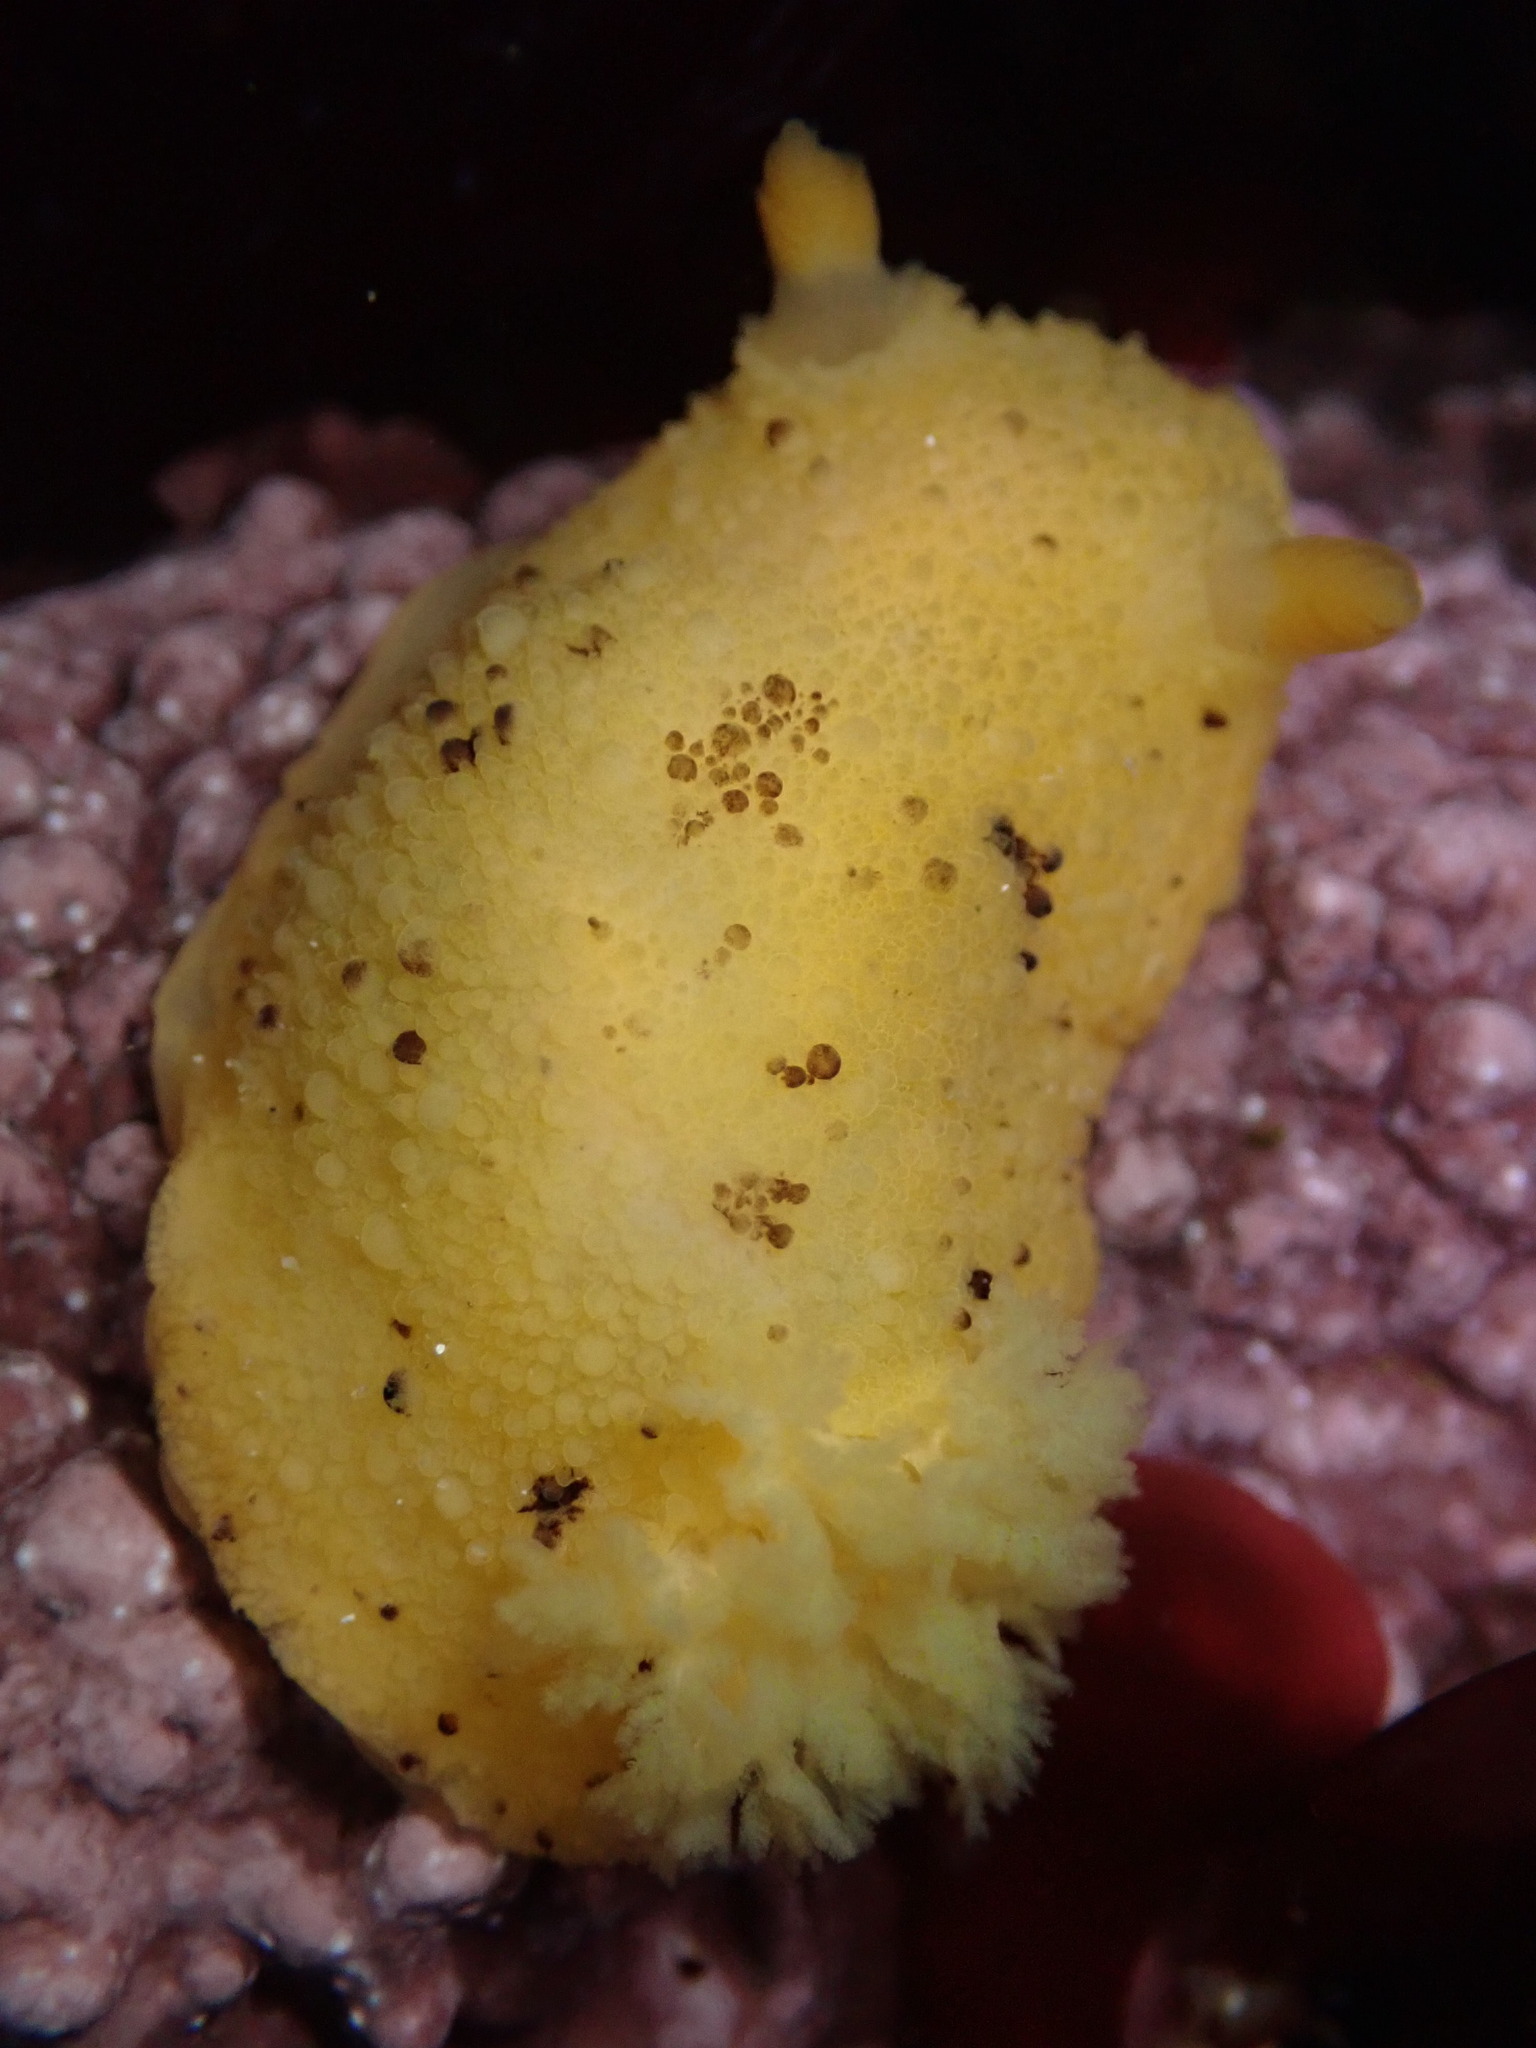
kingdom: Animalia
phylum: Mollusca
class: Gastropoda
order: Nudibranchia
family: Dorididae
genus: Doris
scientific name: Doris montereyensis
